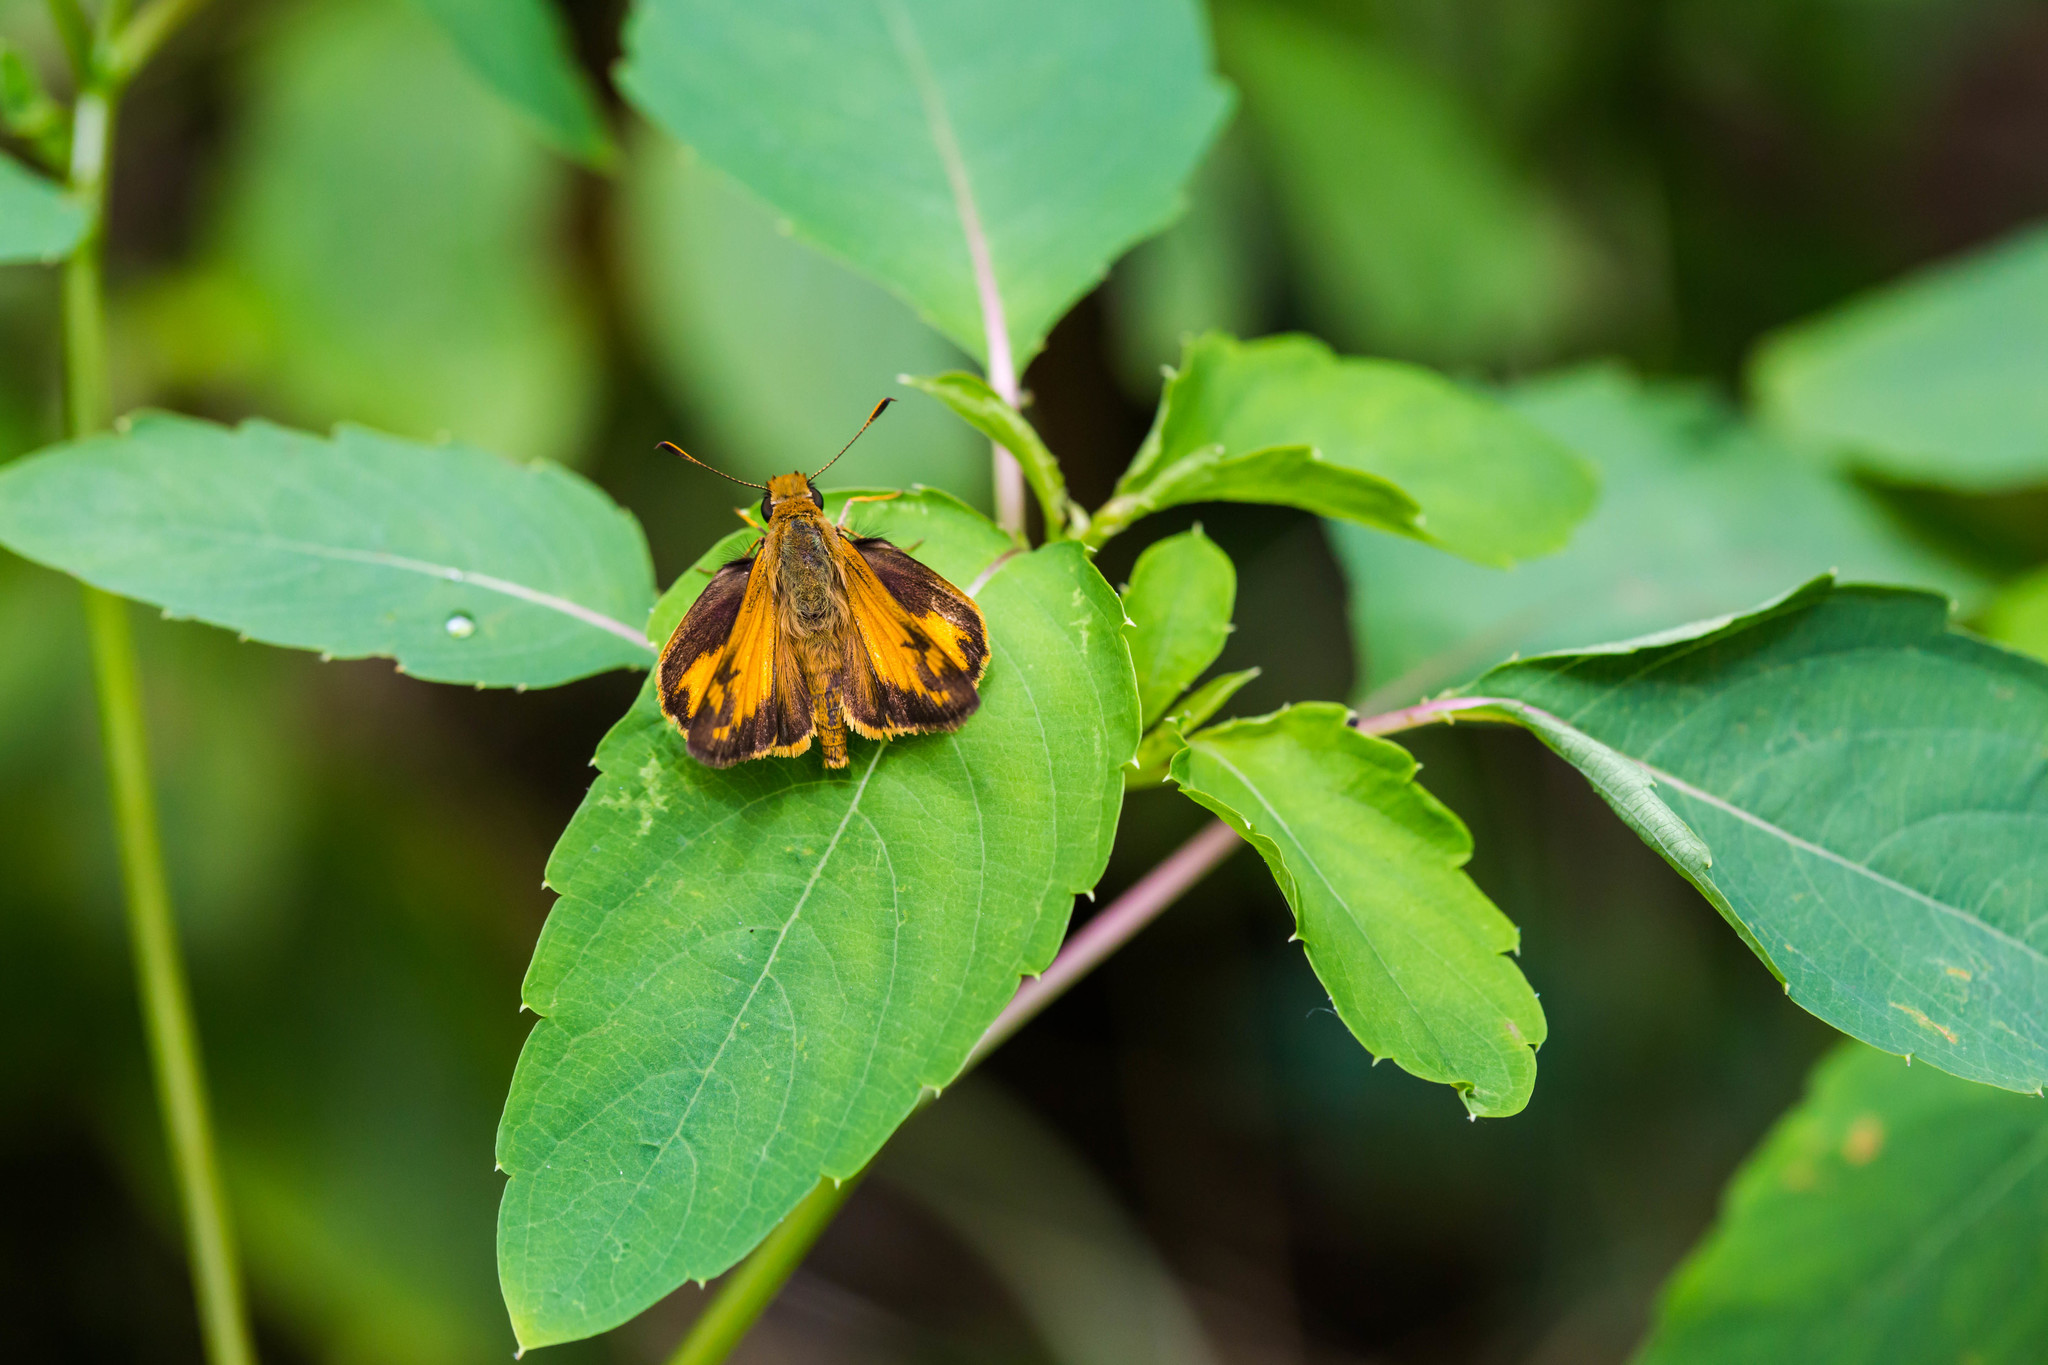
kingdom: Animalia
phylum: Arthropoda
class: Insecta
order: Lepidoptera
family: Hesperiidae
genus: Lon
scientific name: Lon zabulon
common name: Zabulon skipper
